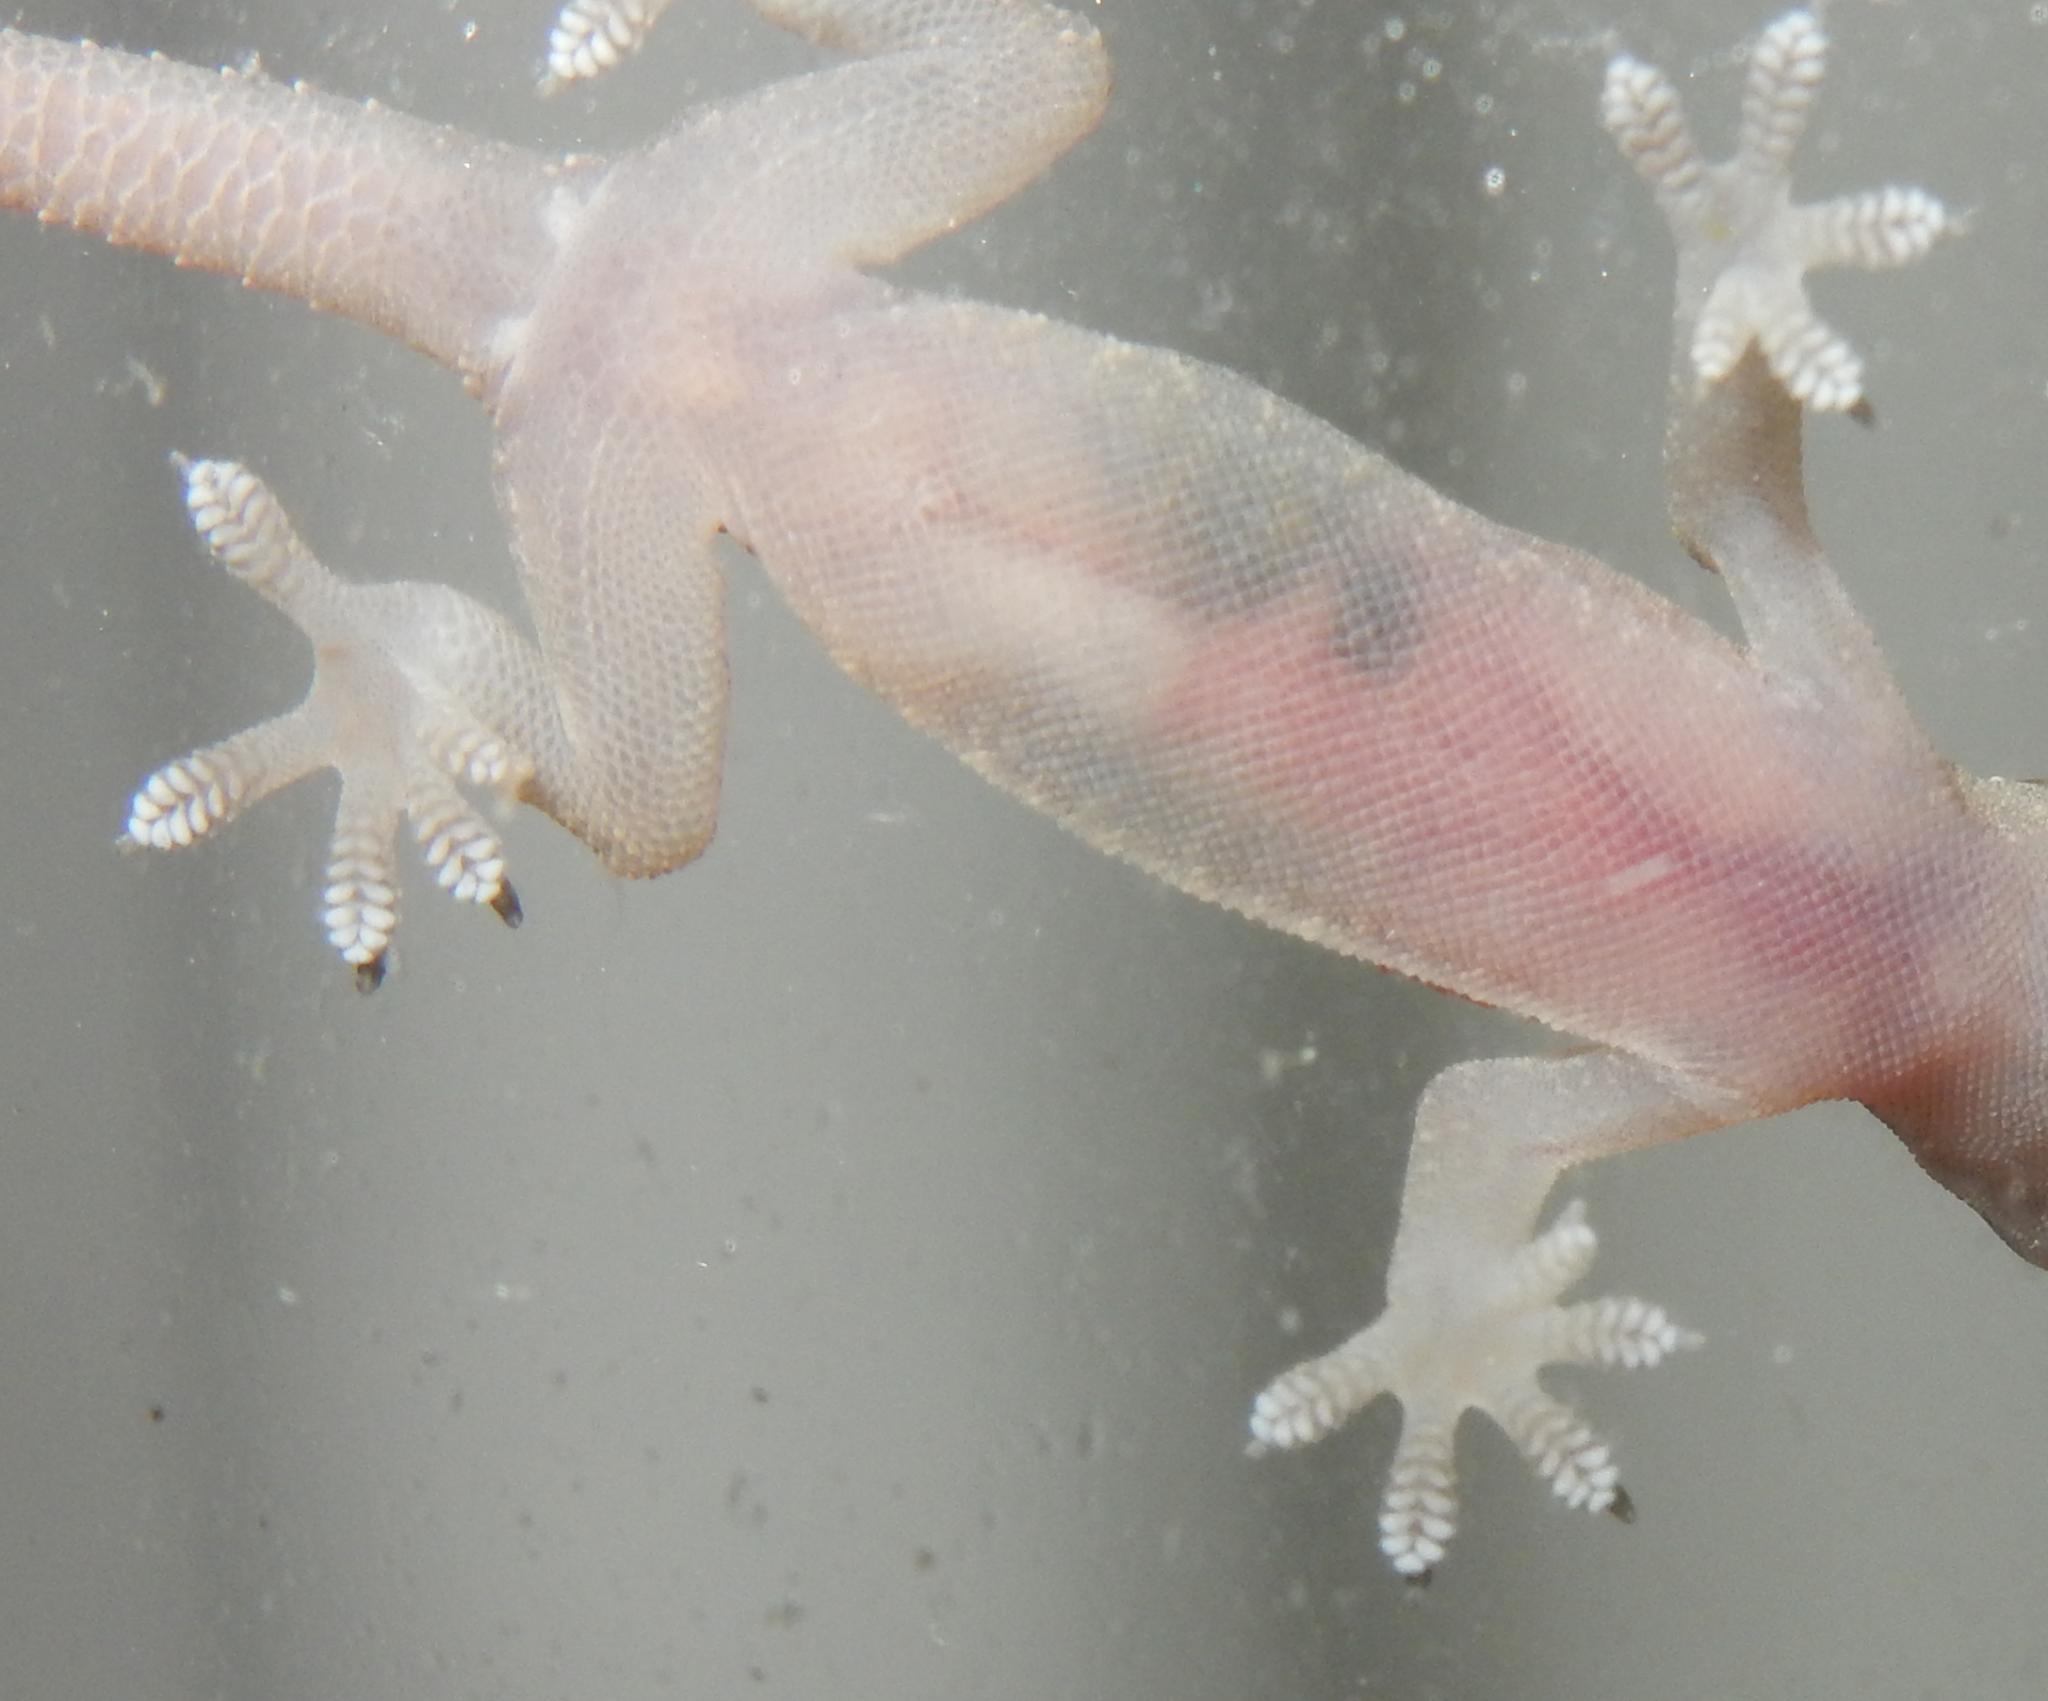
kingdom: Animalia
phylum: Chordata
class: Squamata
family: Gekkonidae
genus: Hemidactylus
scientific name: Hemidactylus mabouia
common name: House gecko
